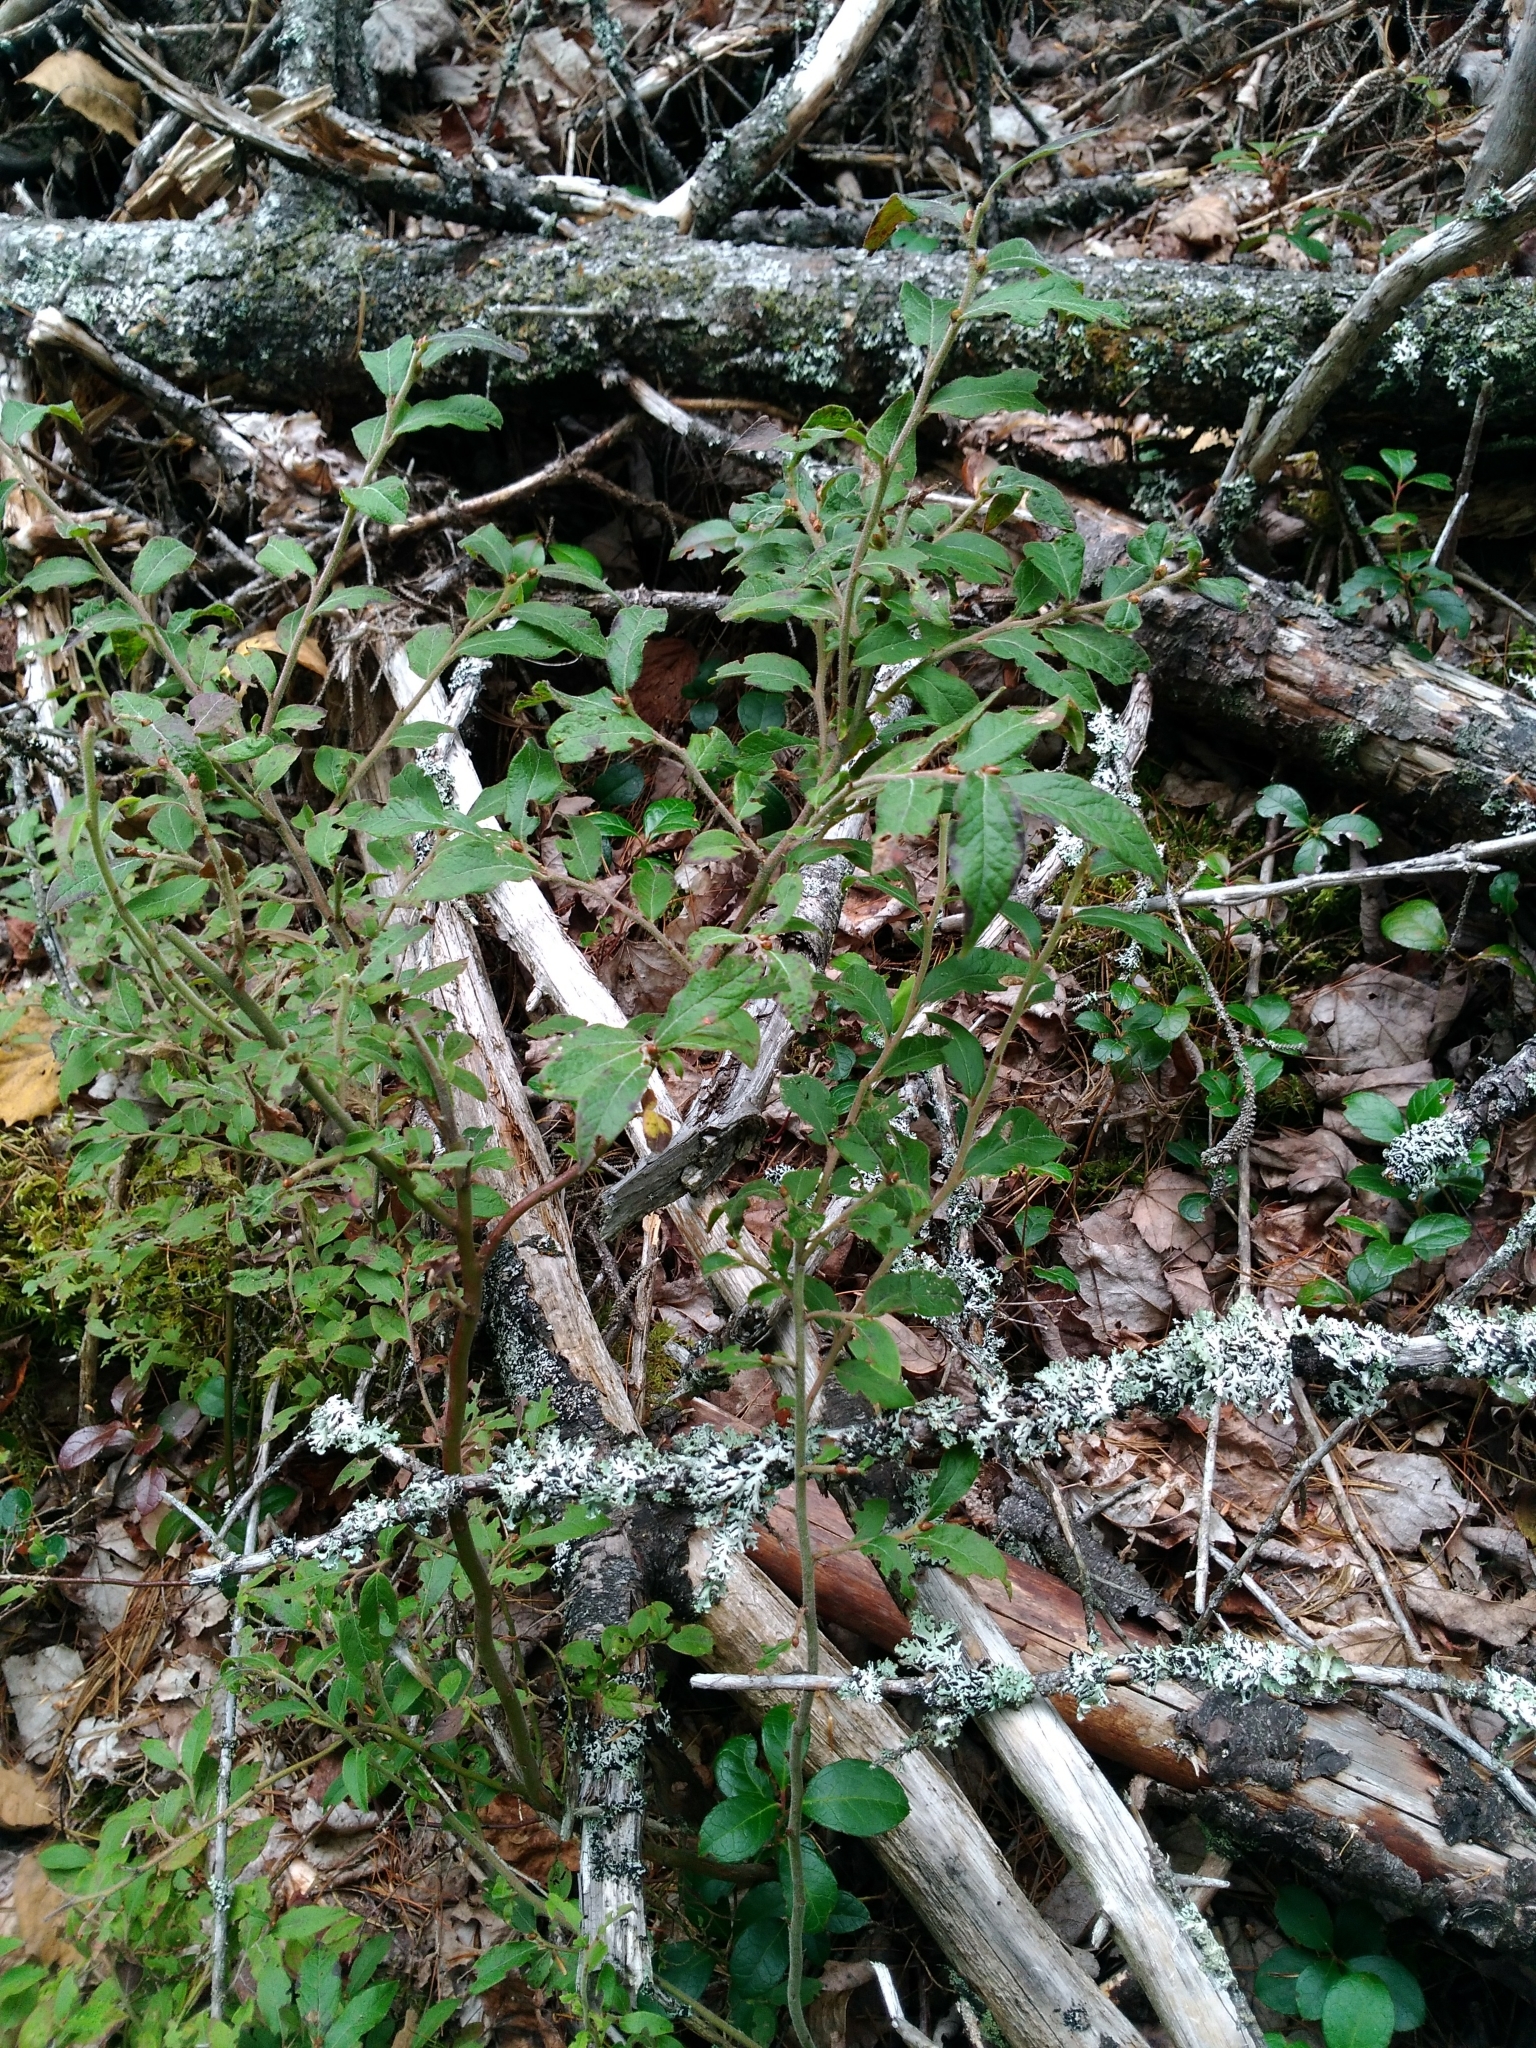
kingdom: Plantae
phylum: Tracheophyta
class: Magnoliopsida
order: Ericales
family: Ericaceae
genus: Vaccinium
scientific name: Vaccinium myrtilloides
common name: Canada blueberry
